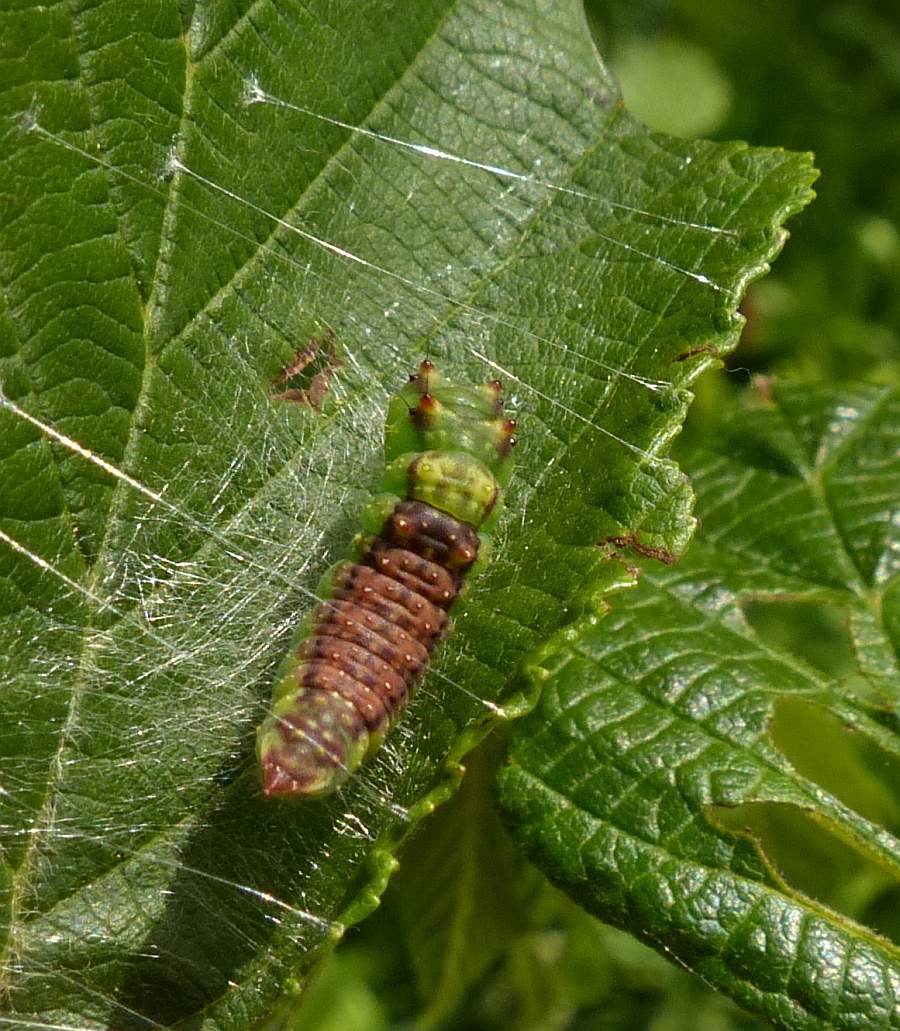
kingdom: Animalia
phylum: Arthropoda
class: Insecta
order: Lepidoptera
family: Drepanidae
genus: Drepana
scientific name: Drepana arcuata
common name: Arched hooktip moth
